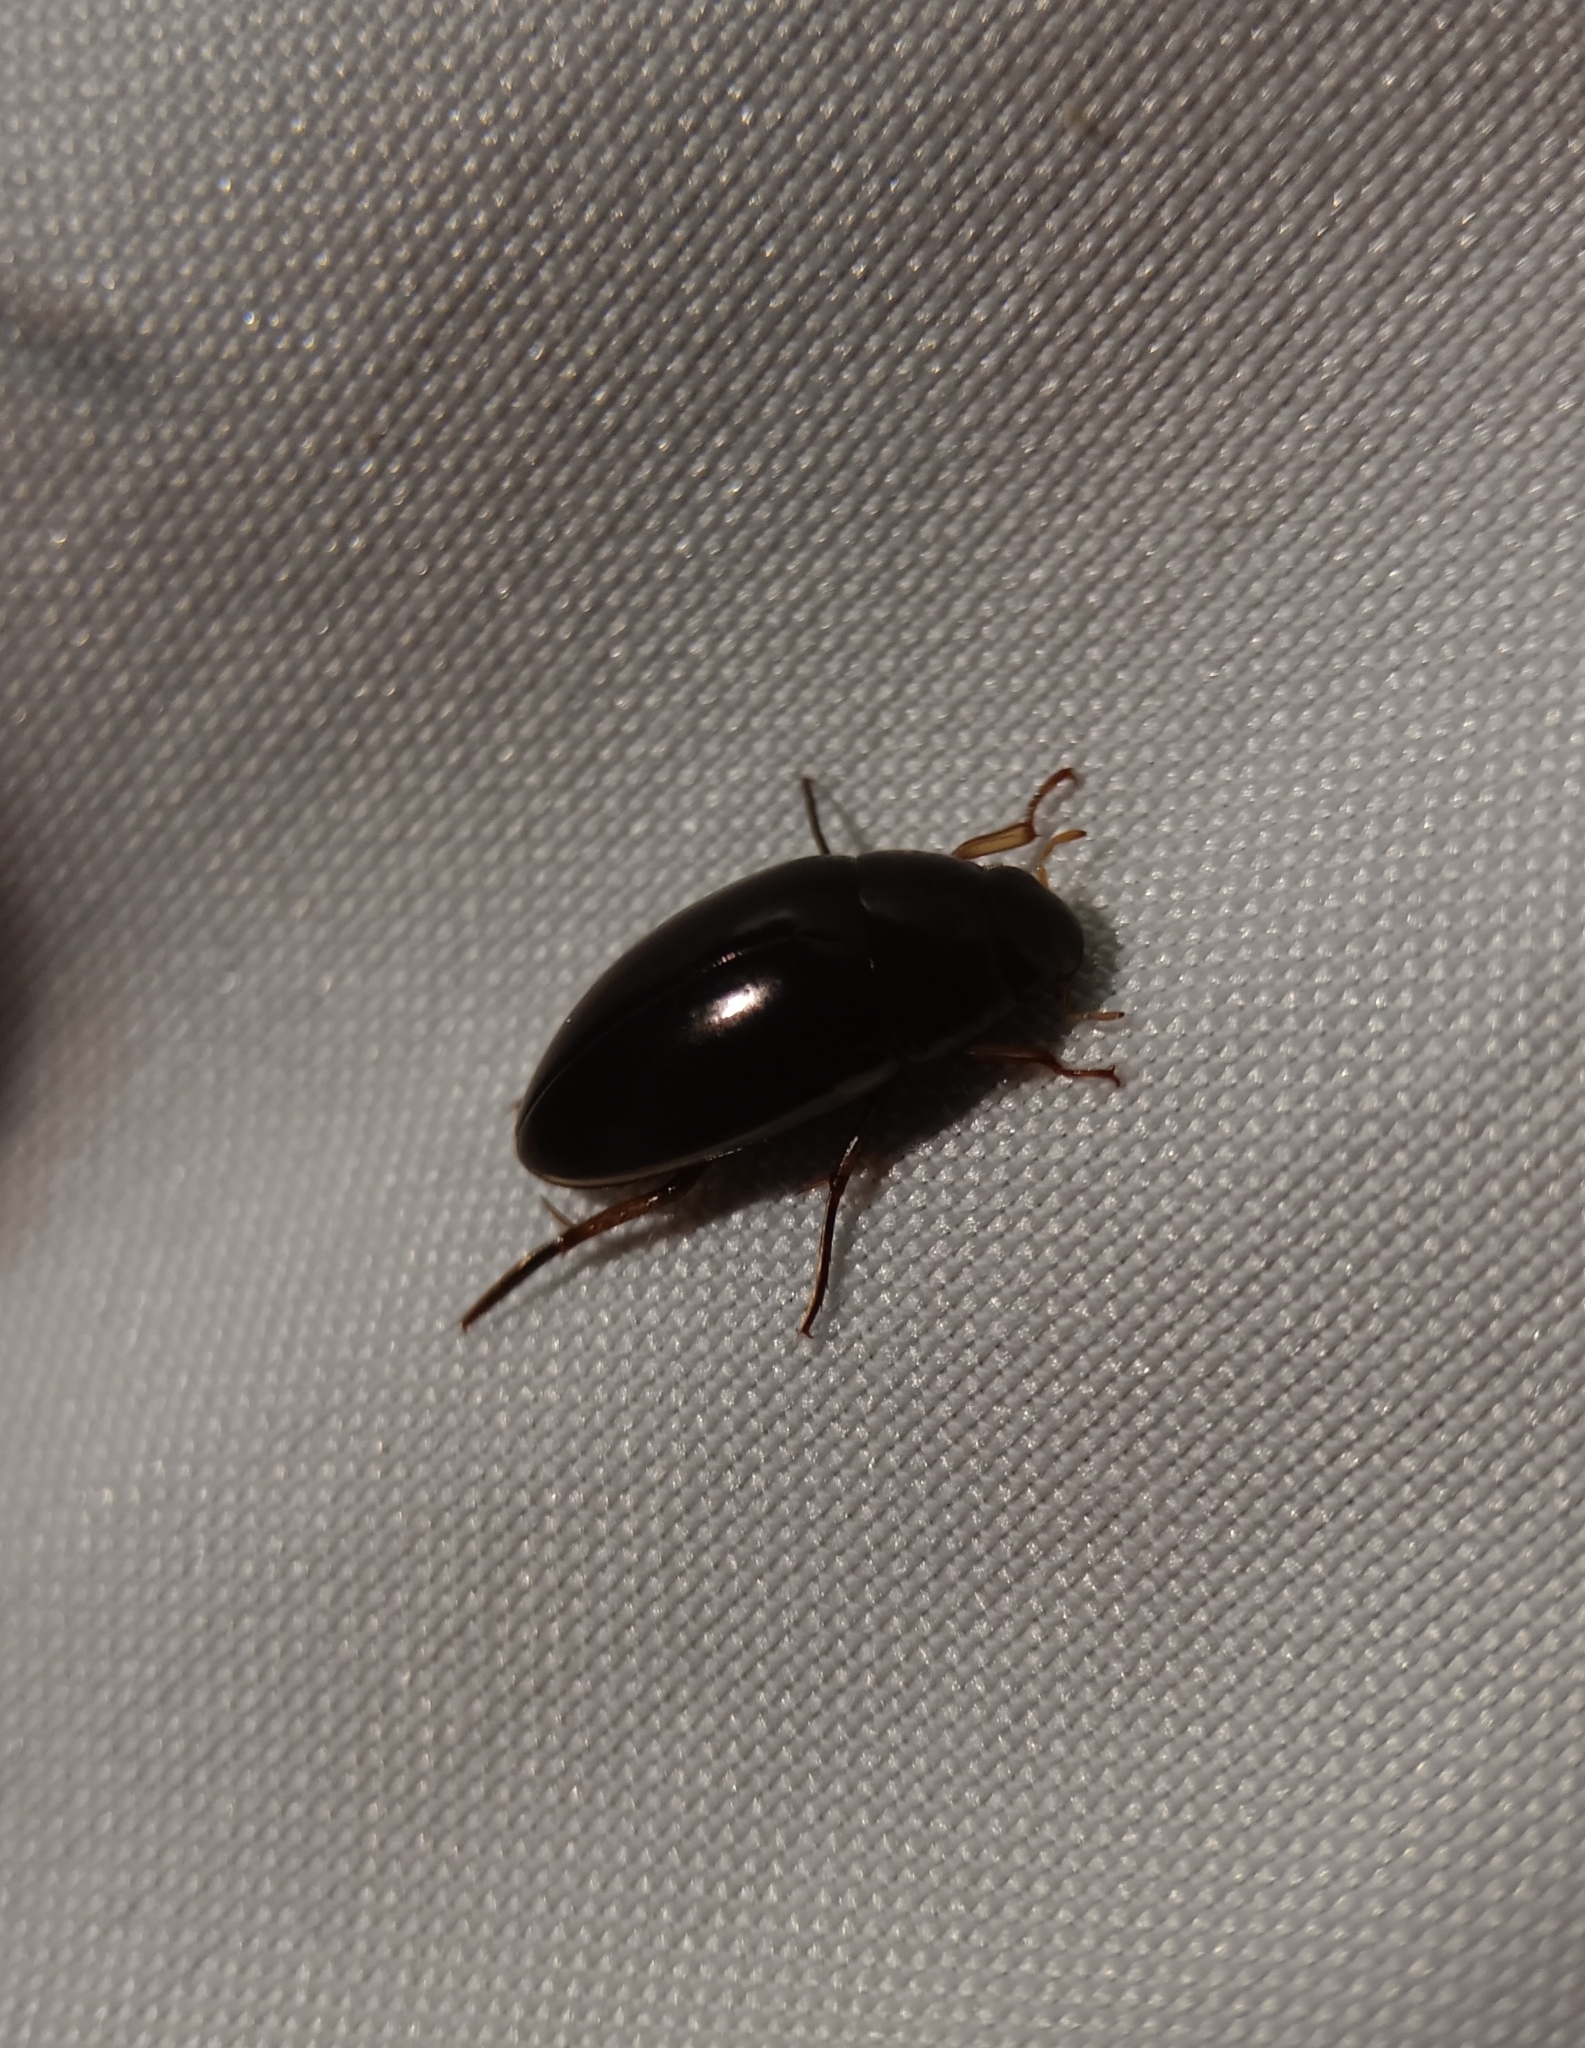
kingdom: Animalia
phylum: Arthropoda
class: Insecta
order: Coleoptera
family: Hydrophilidae
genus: Tropisternus
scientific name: Tropisternus lateralis
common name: Lateral-banded water scavenger beetle
